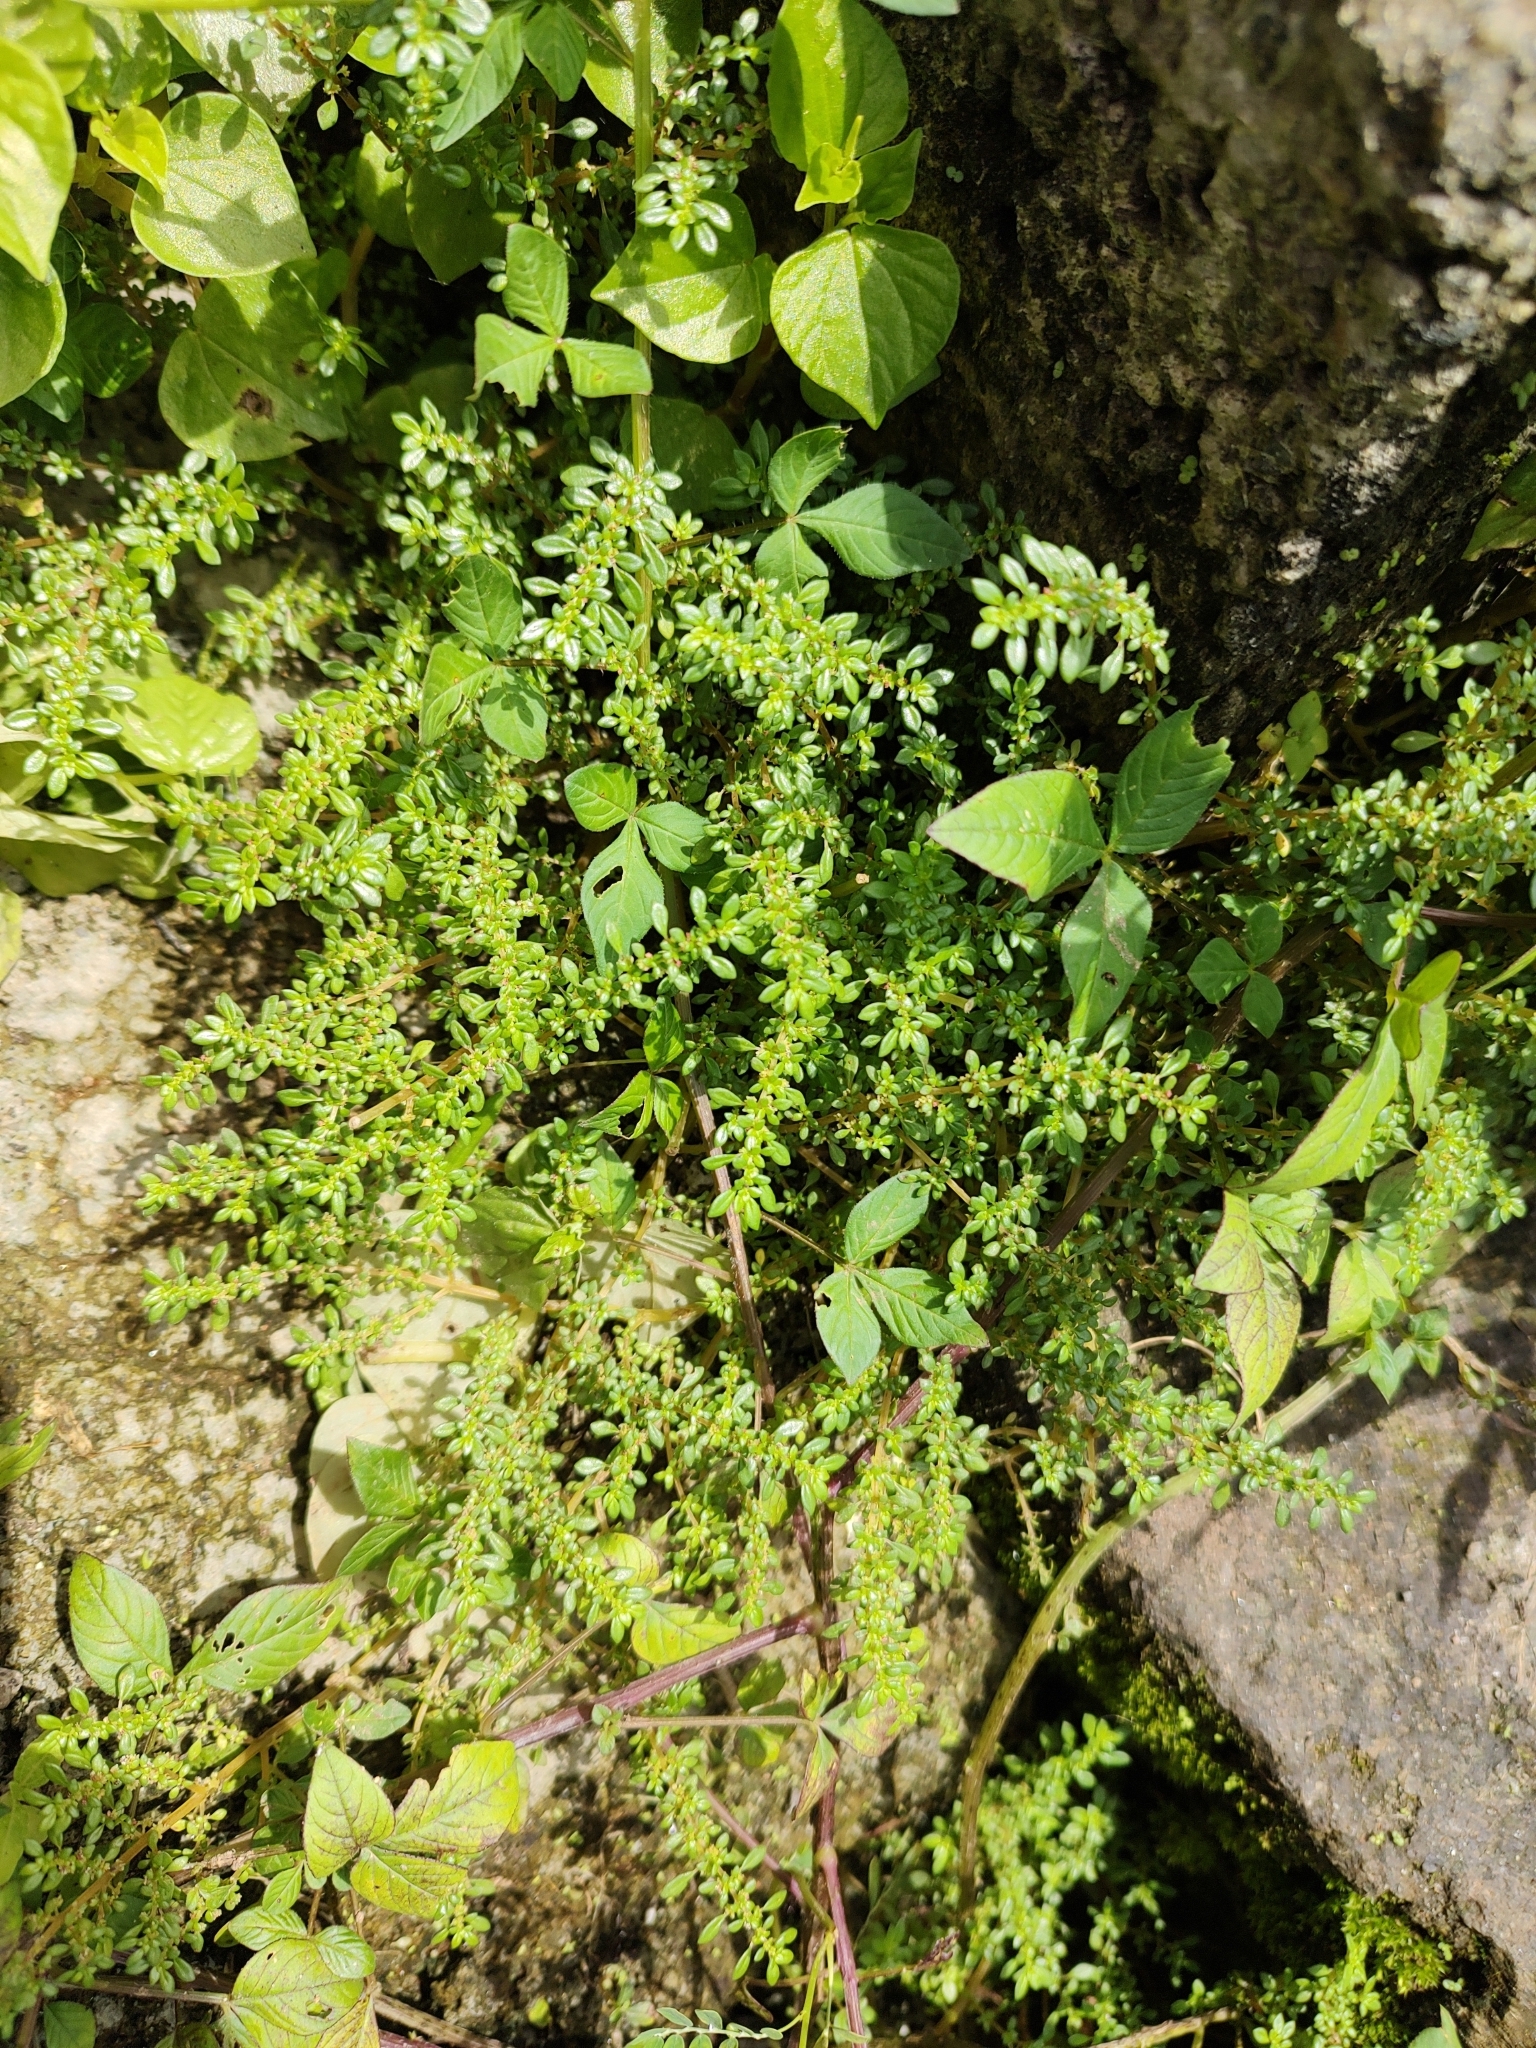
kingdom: Plantae
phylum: Tracheophyta
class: Magnoliopsida
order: Rosales
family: Urticaceae
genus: Pilea
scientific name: Pilea microphylla
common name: Artillery-plant
